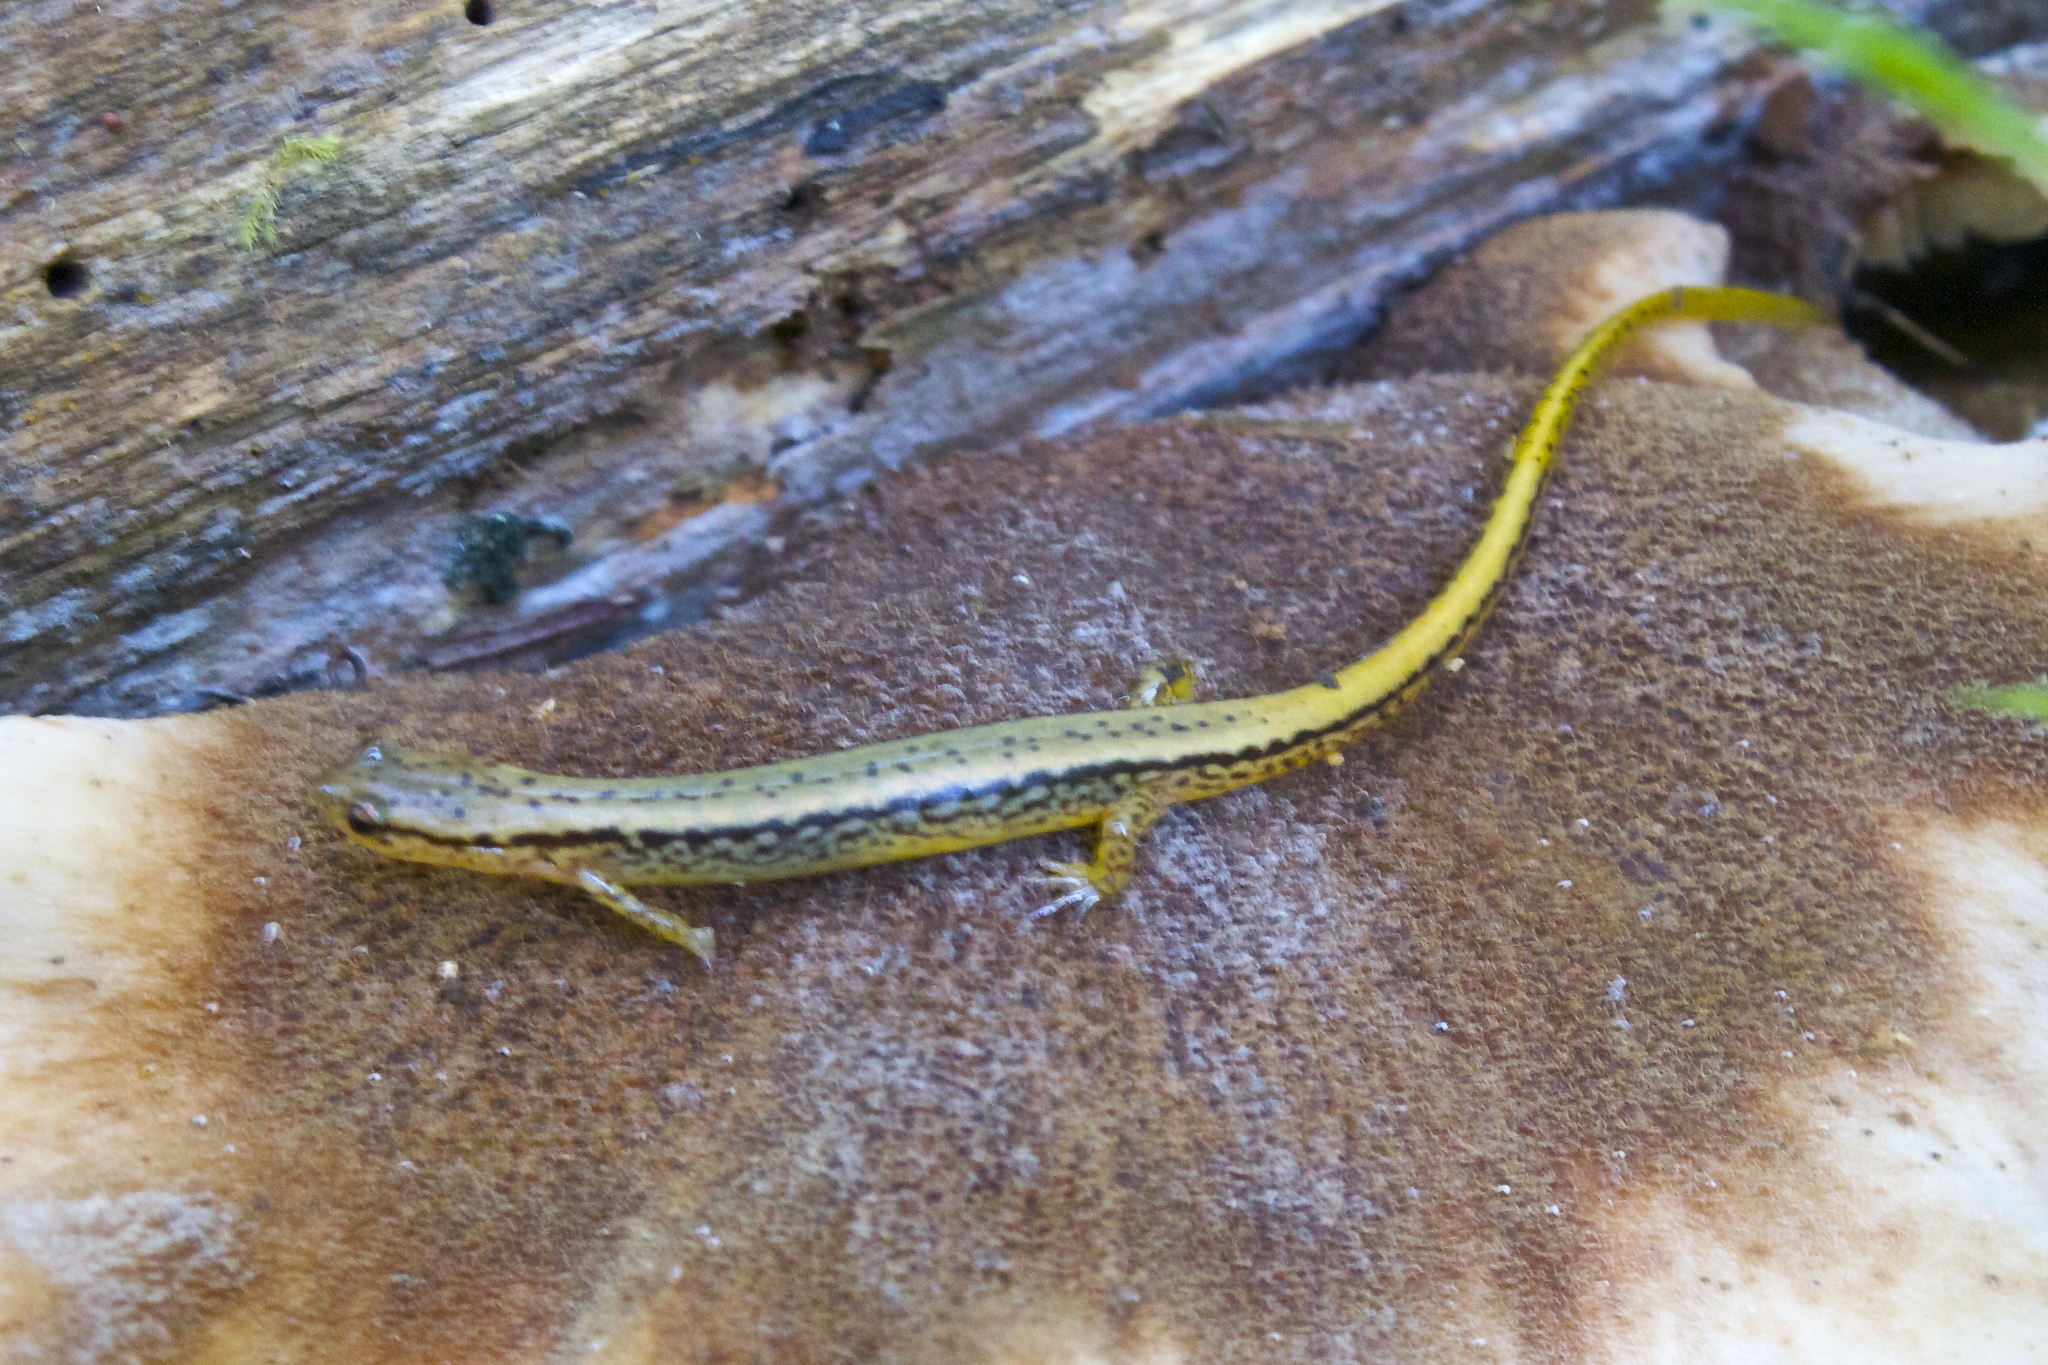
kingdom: Animalia
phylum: Chordata
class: Amphibia
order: Caudata
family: Plethodontidae
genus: Eurycea
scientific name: Eurycea bislineata
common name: Northern two-lined salamander
